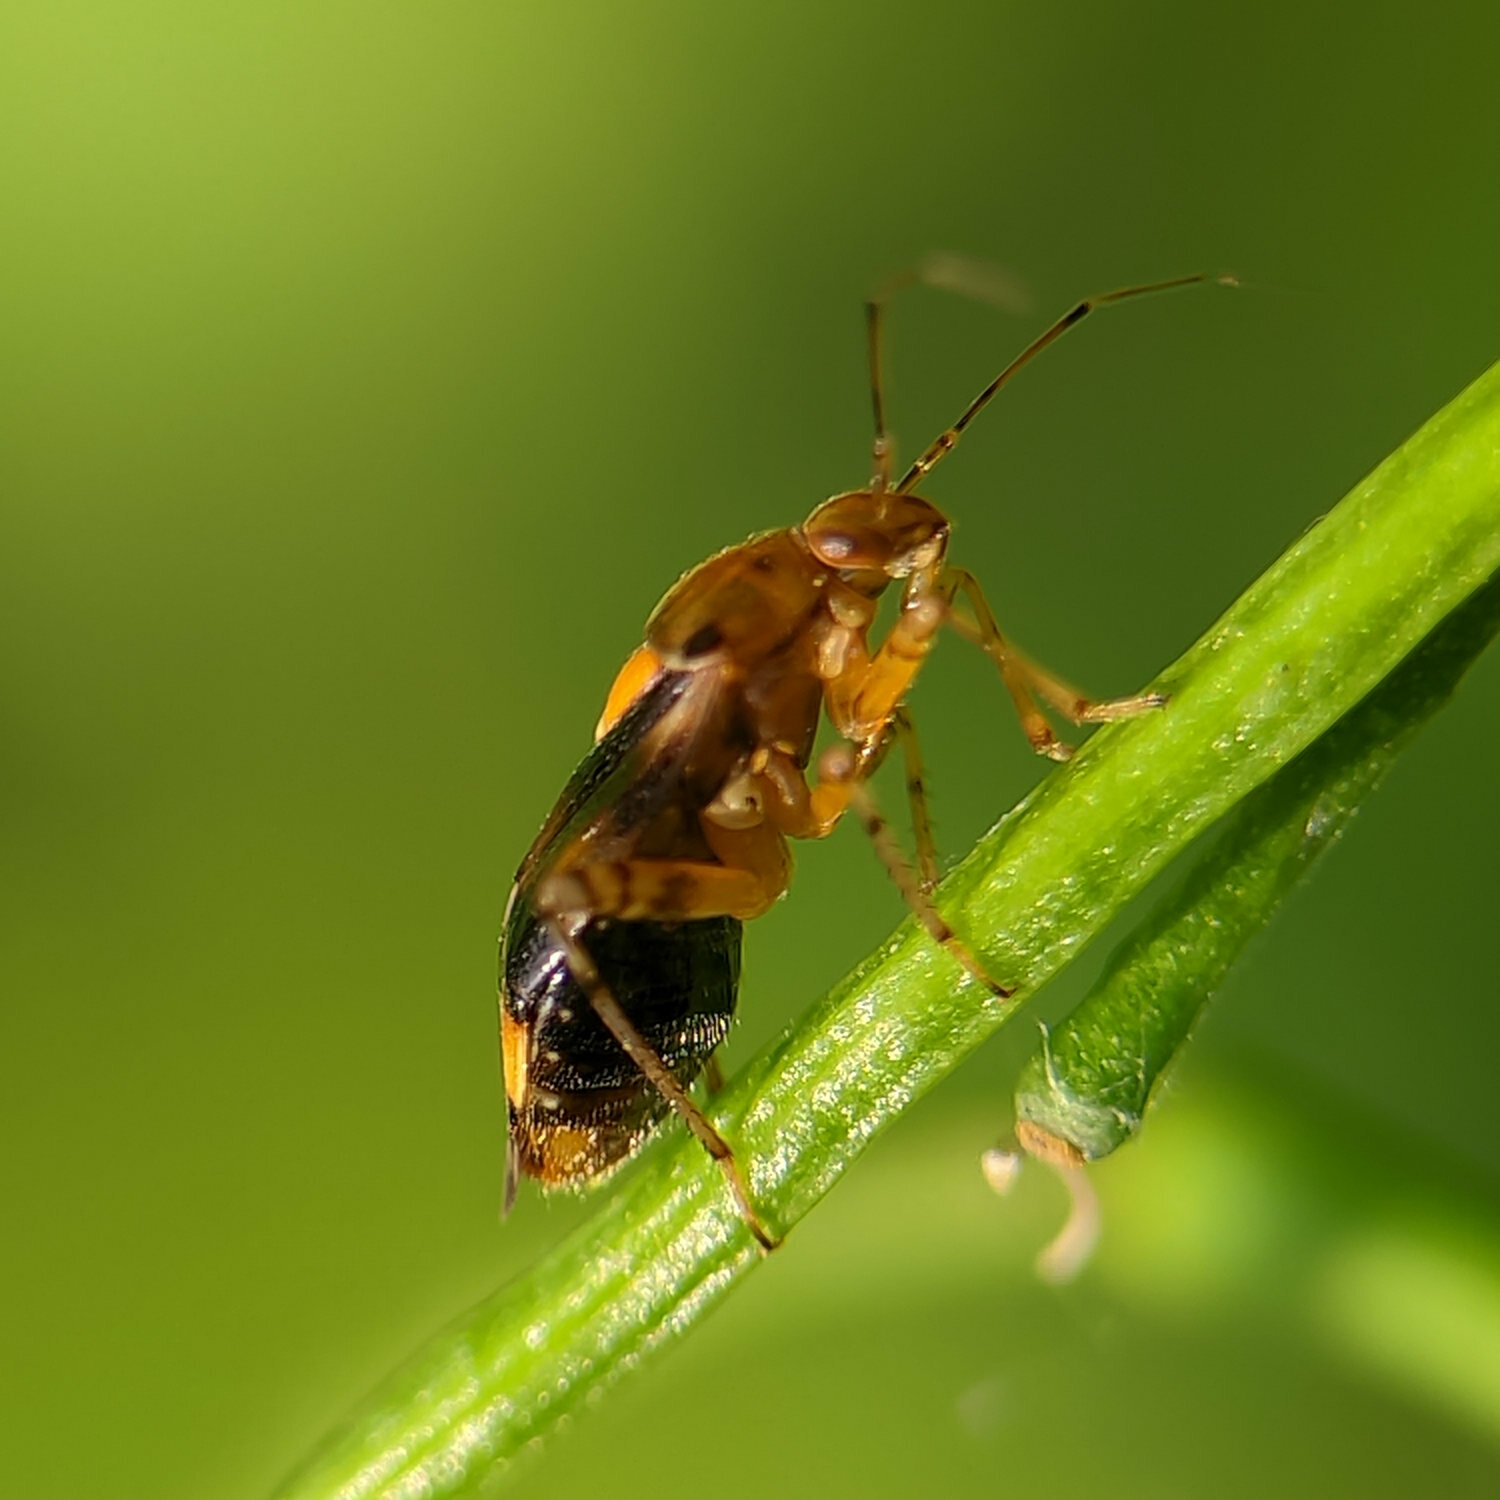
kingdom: Animalia
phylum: Arthropoda
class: Insecta
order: Hemiptera
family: Miridae
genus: Liocoris
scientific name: Liocoris tripustulatus
